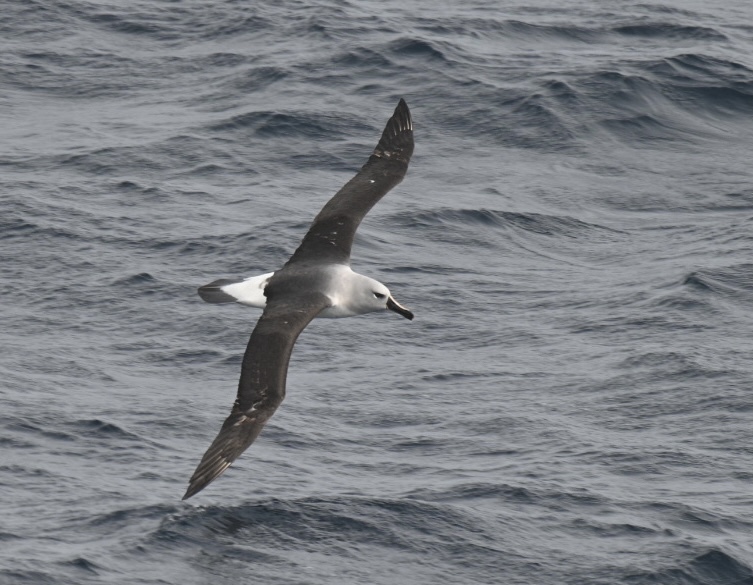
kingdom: Animalia
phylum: Chordata
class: Aves
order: Procellariiformes
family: Diomedeidae
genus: Thalassarche
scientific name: Thalassarche chrysostoma
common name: Grey-headed albatross
